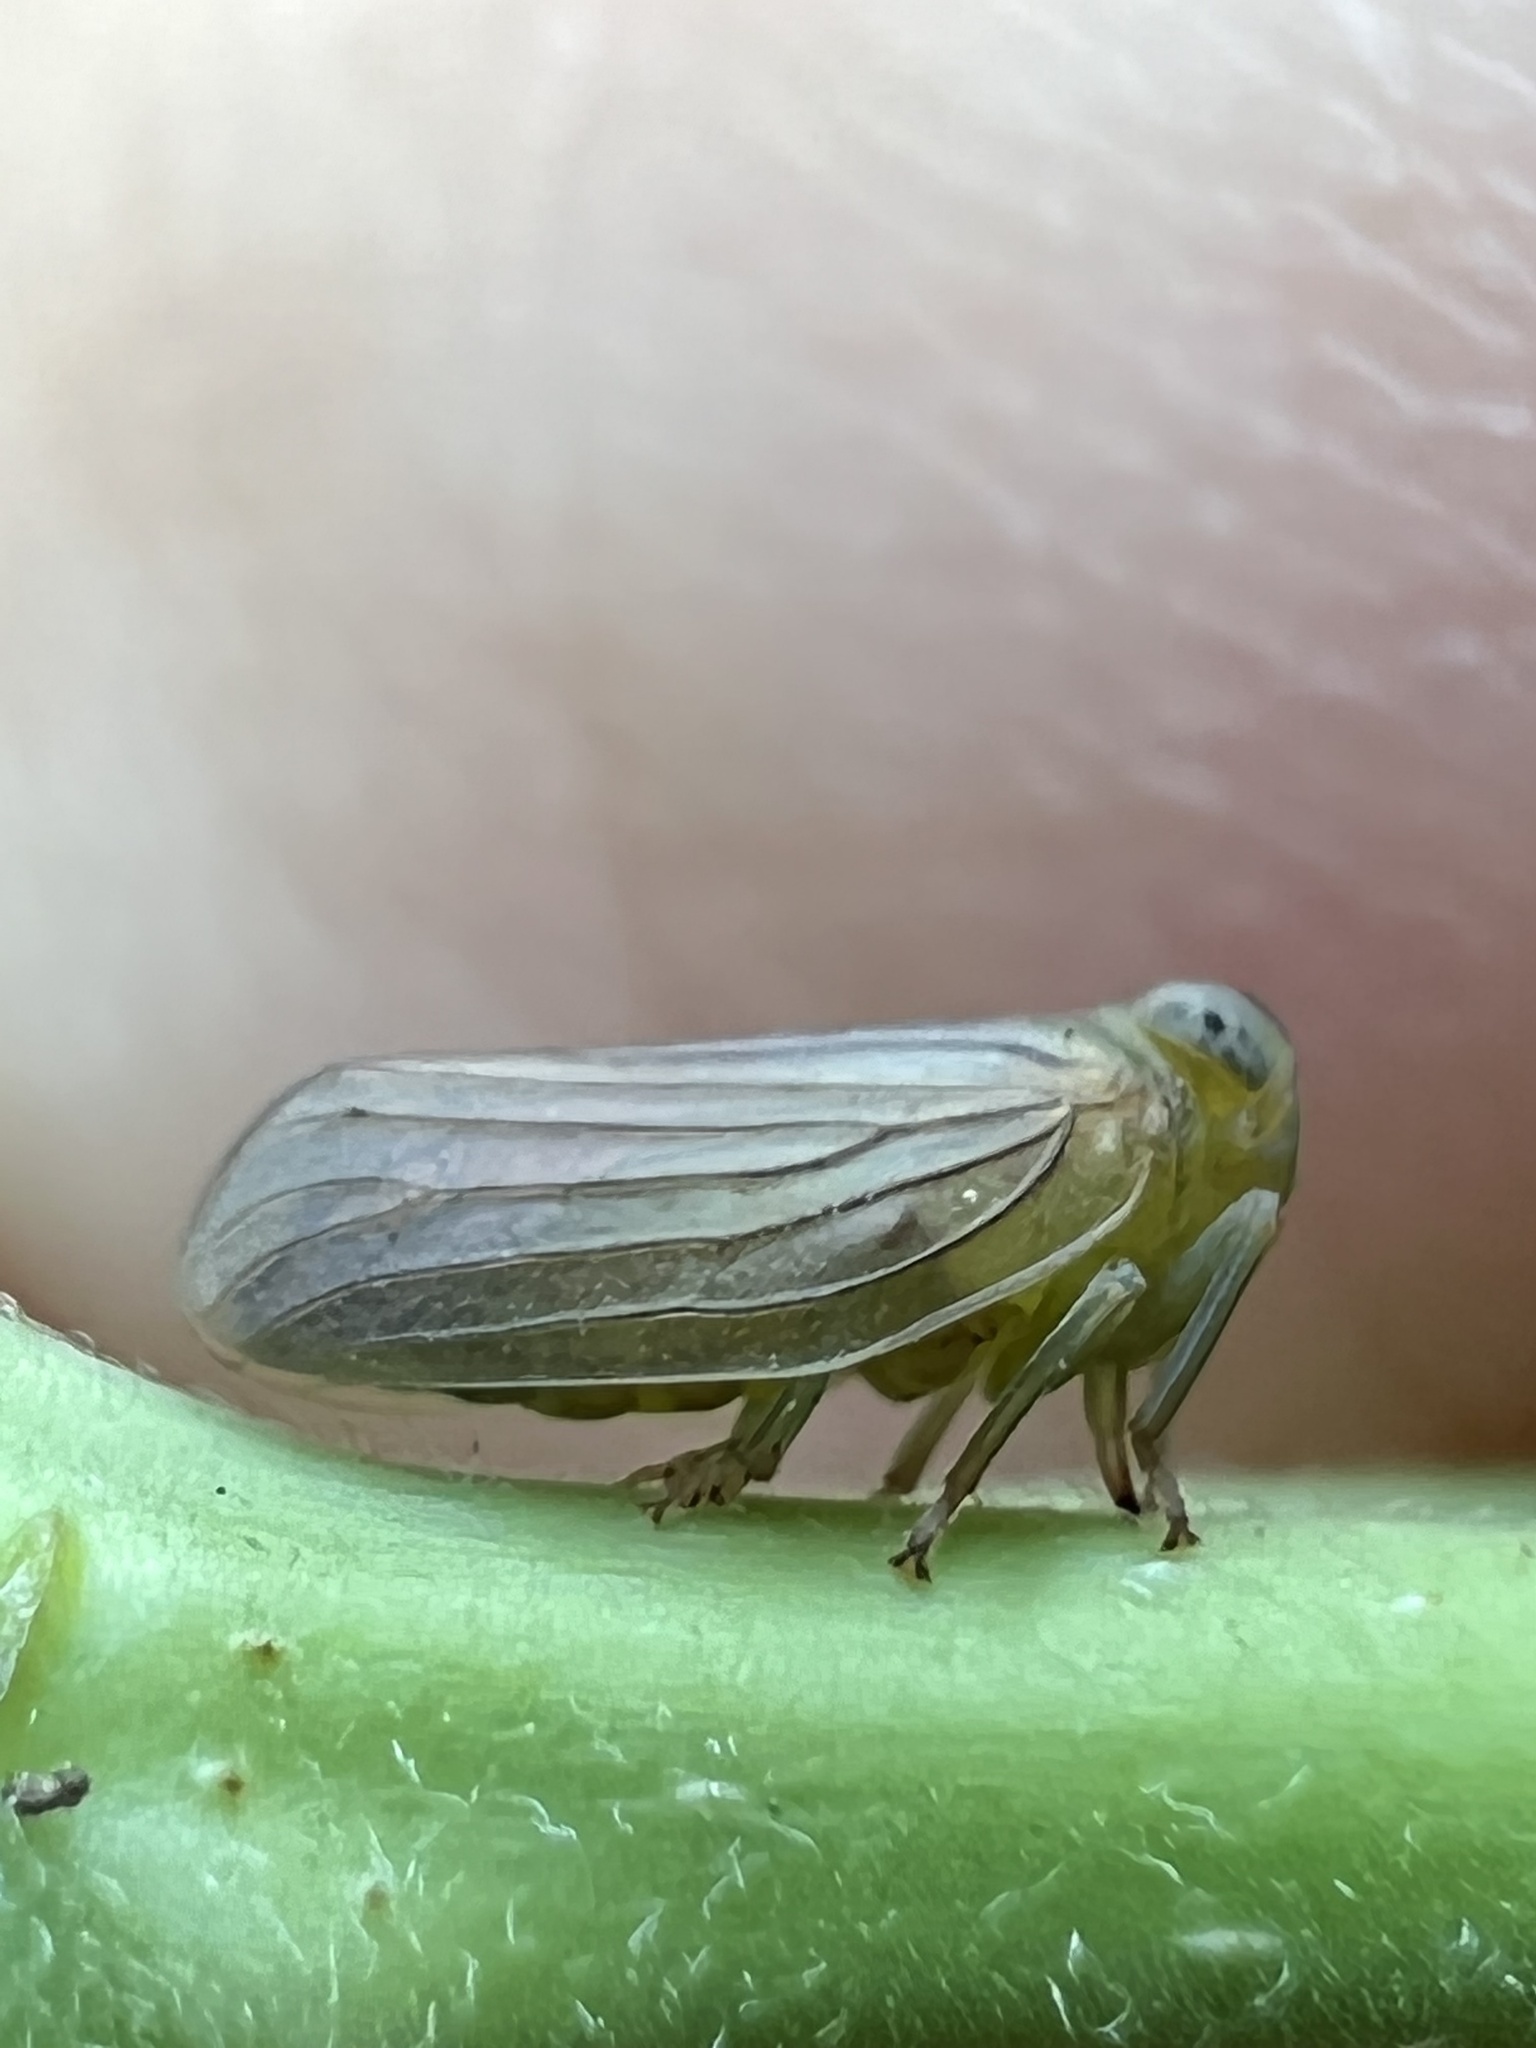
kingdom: Animalia
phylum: Arthropoda
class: Insecta
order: Hemiptera
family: Issidae
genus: Aplos
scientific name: Aplos simplex
